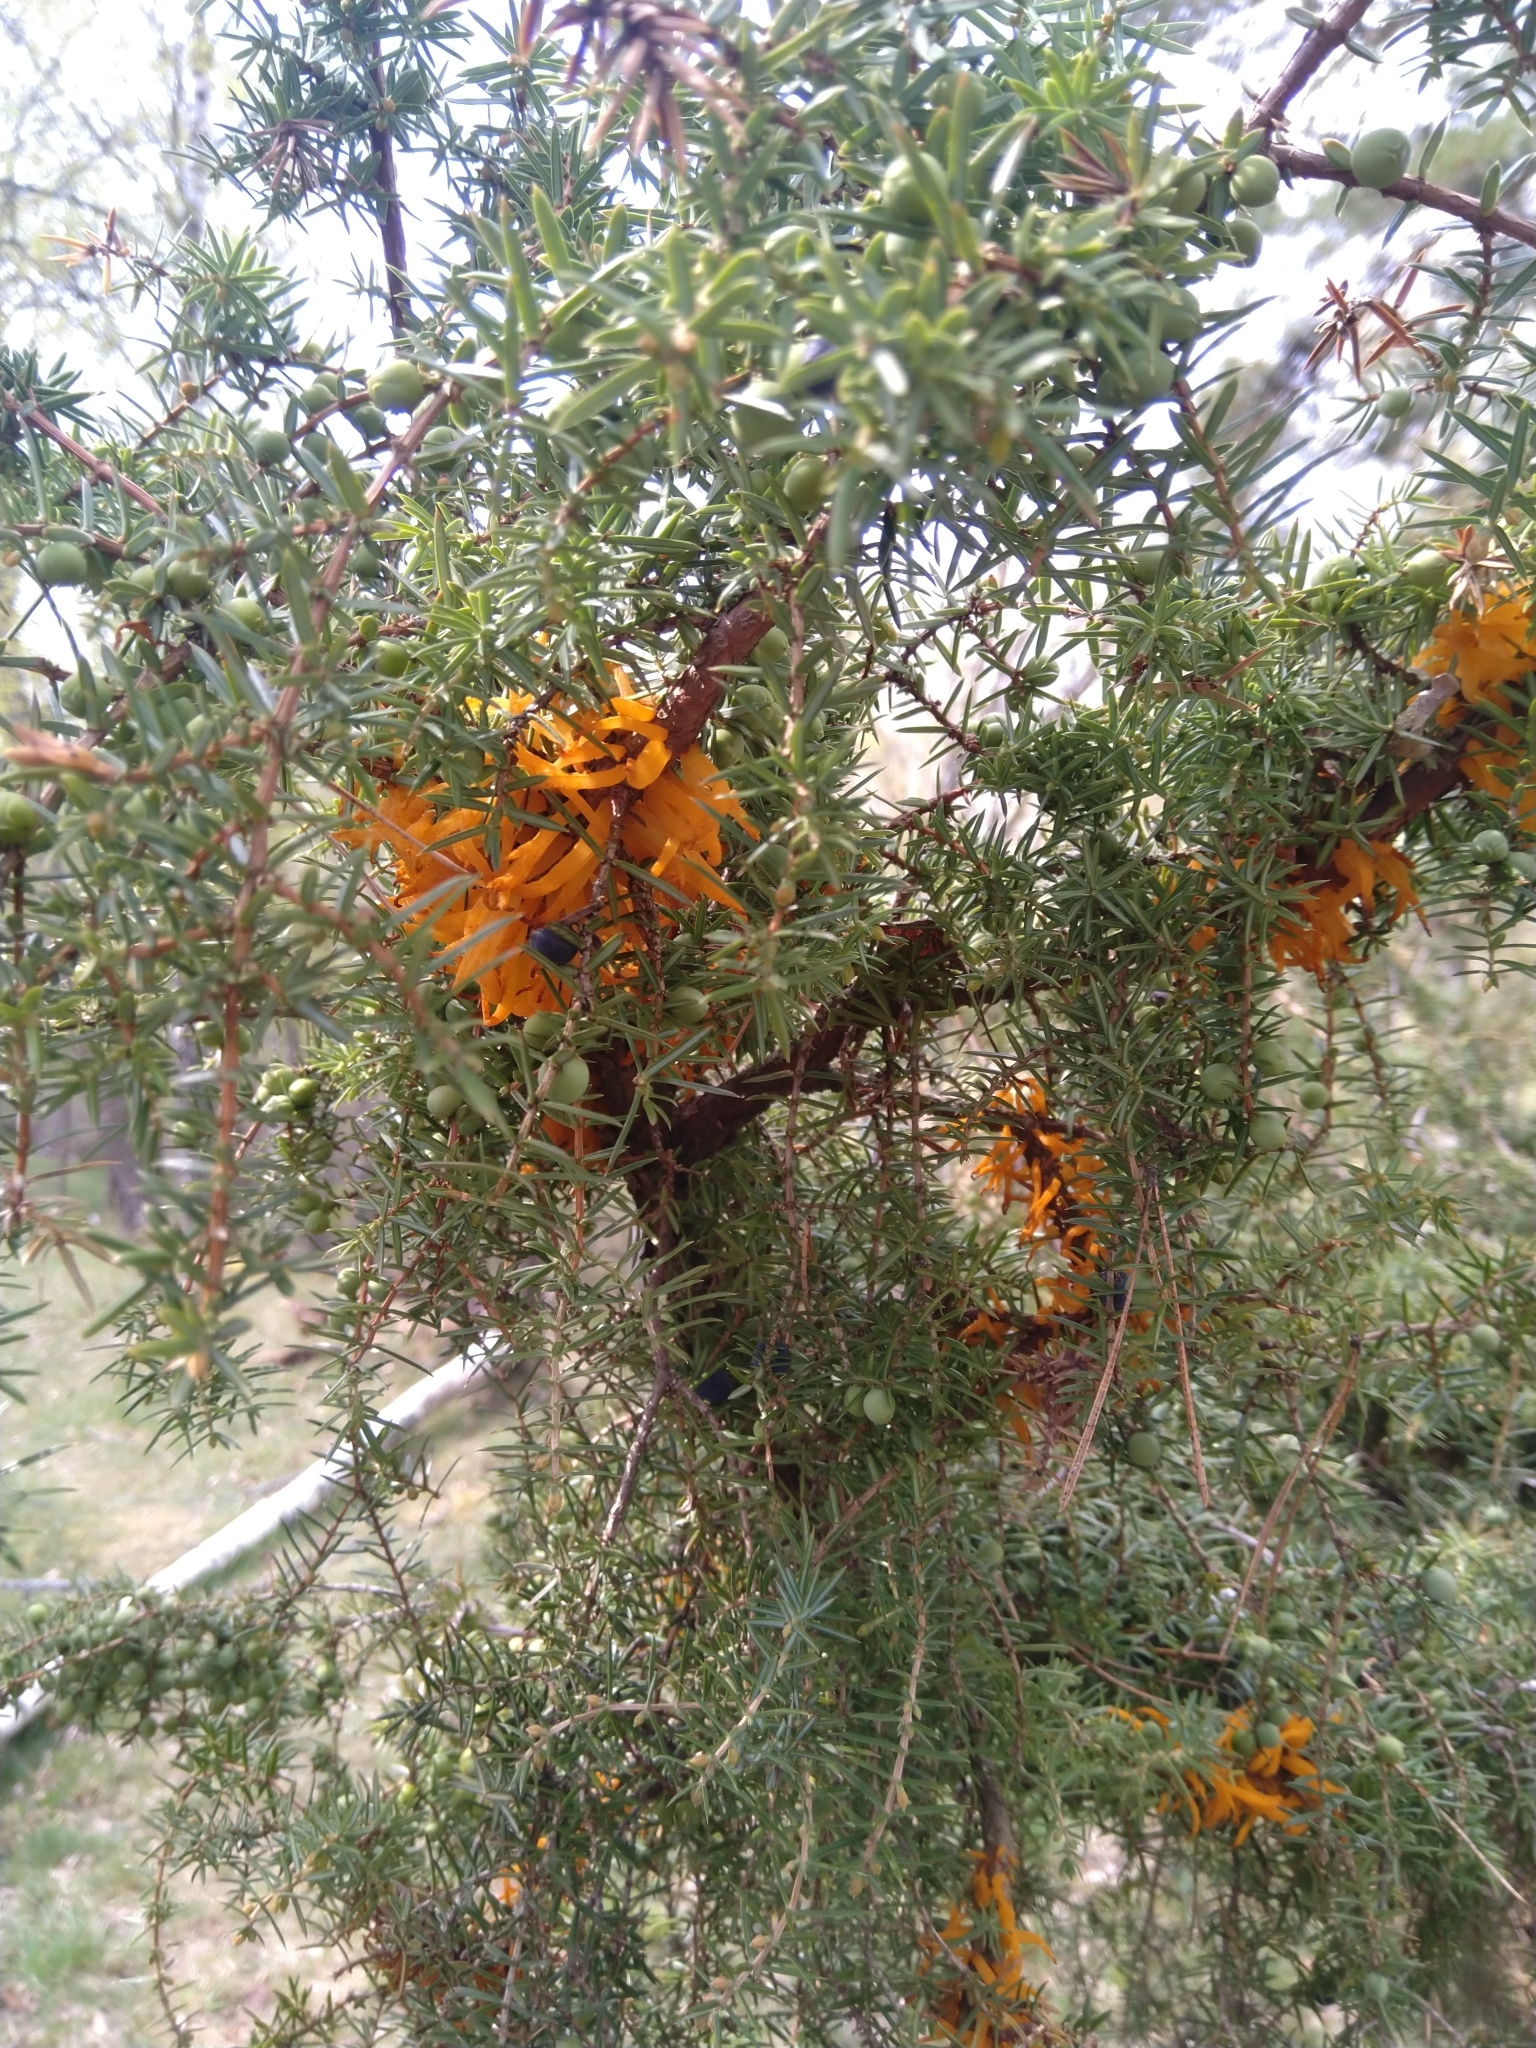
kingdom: Fungi
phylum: Basidiomycota
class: Pucciniomycetes
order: Pucciniales
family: Gymnosporangiaceae
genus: Gymnosporangium
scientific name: Gymnosporangium clavariiforme
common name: Tongues of fire
